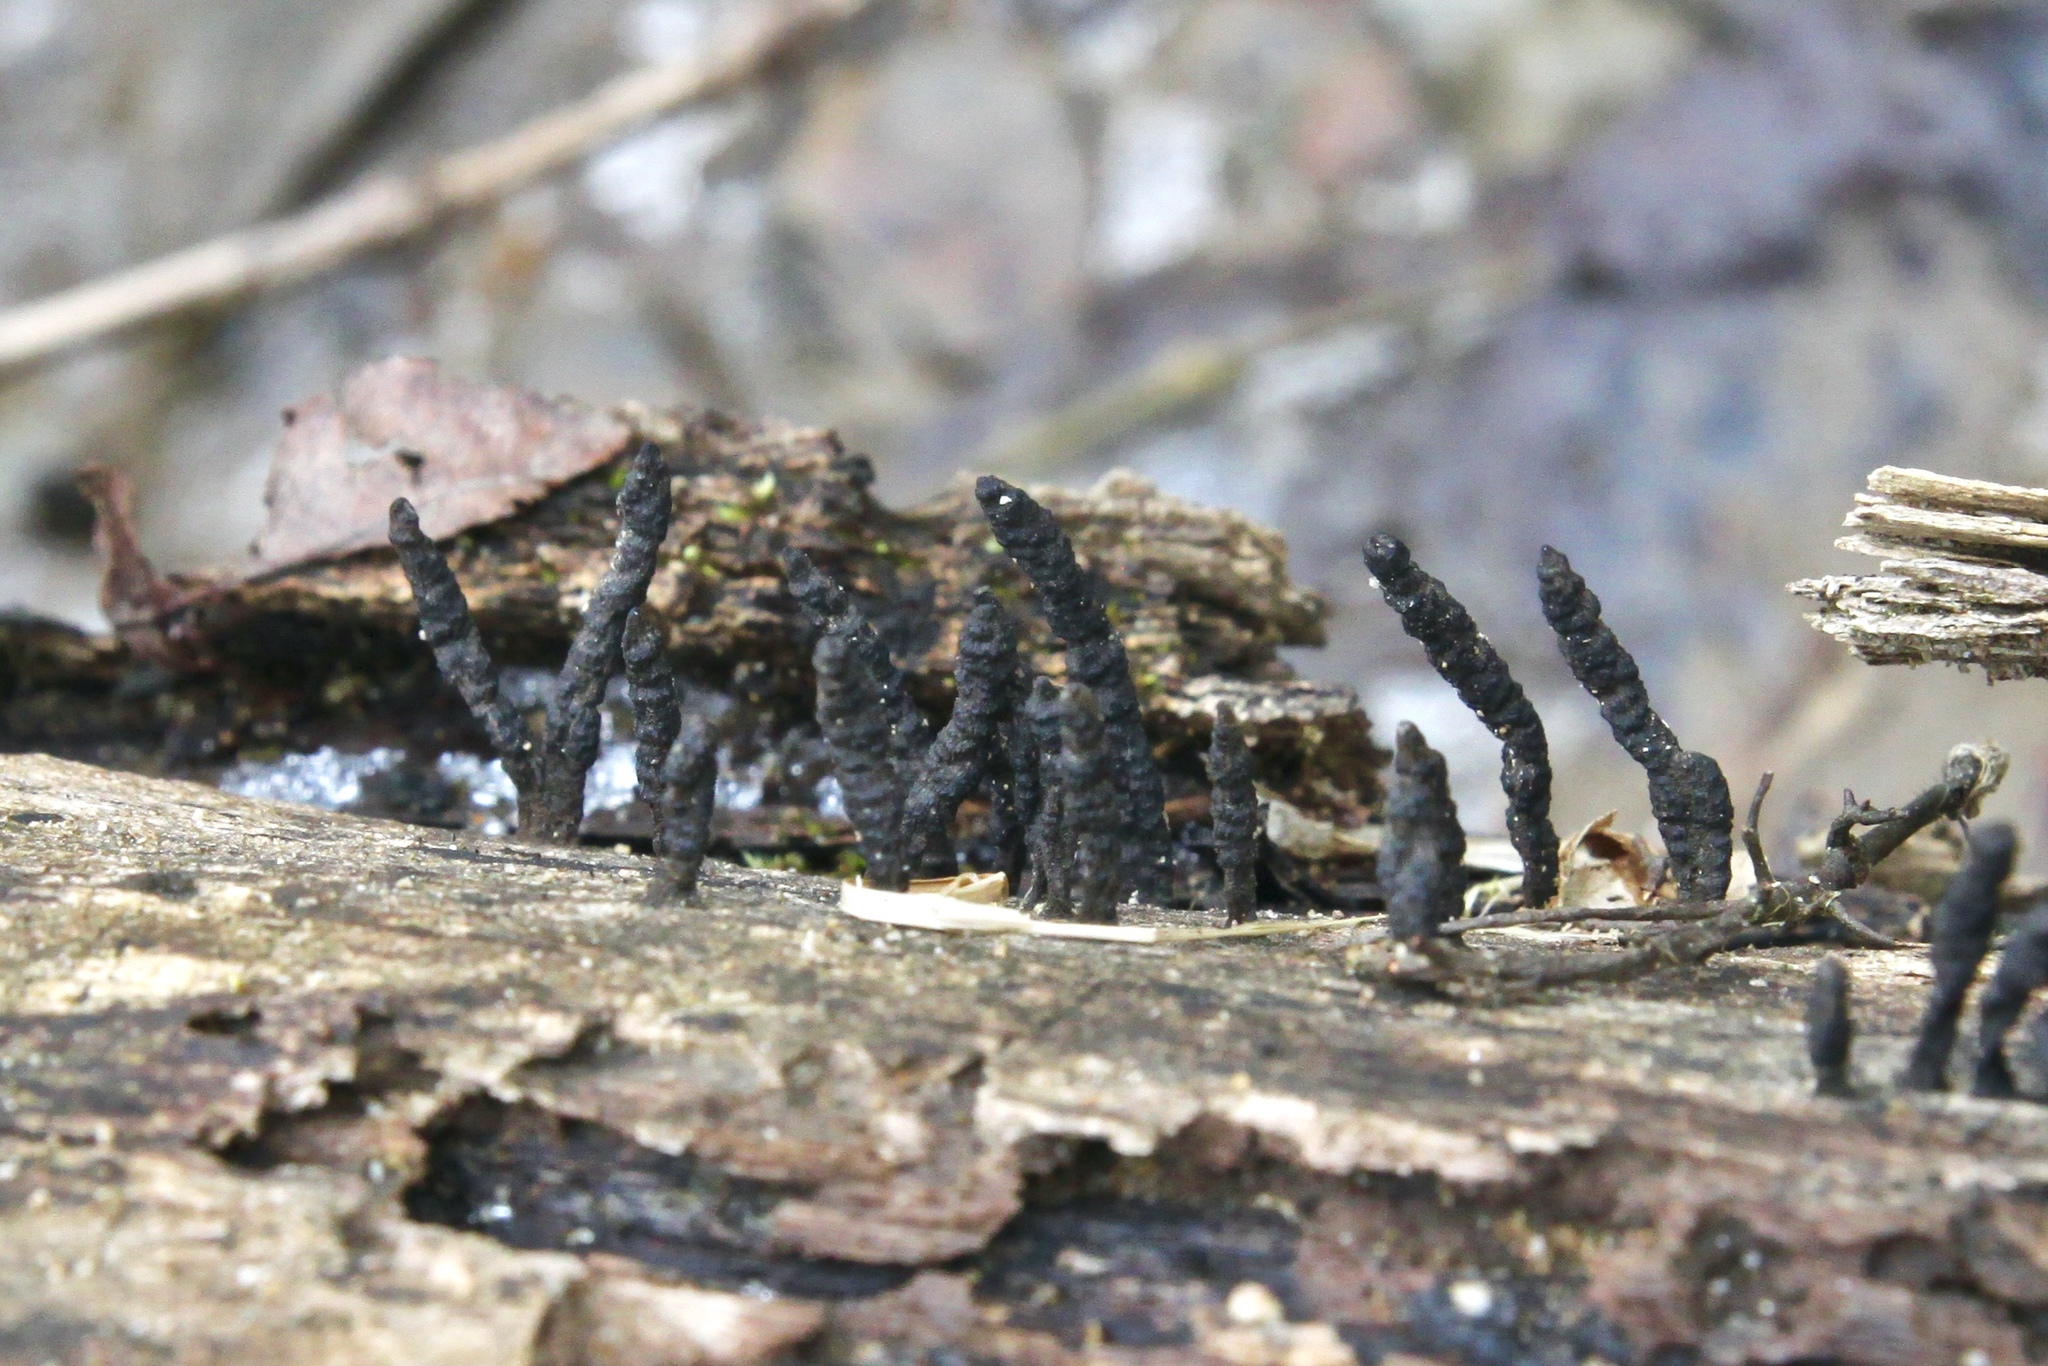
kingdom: Fungi
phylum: Ascomycota
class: Sordariomycetes
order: Xylariales
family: Xylariaceae
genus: Xylaria
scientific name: Xylaria
